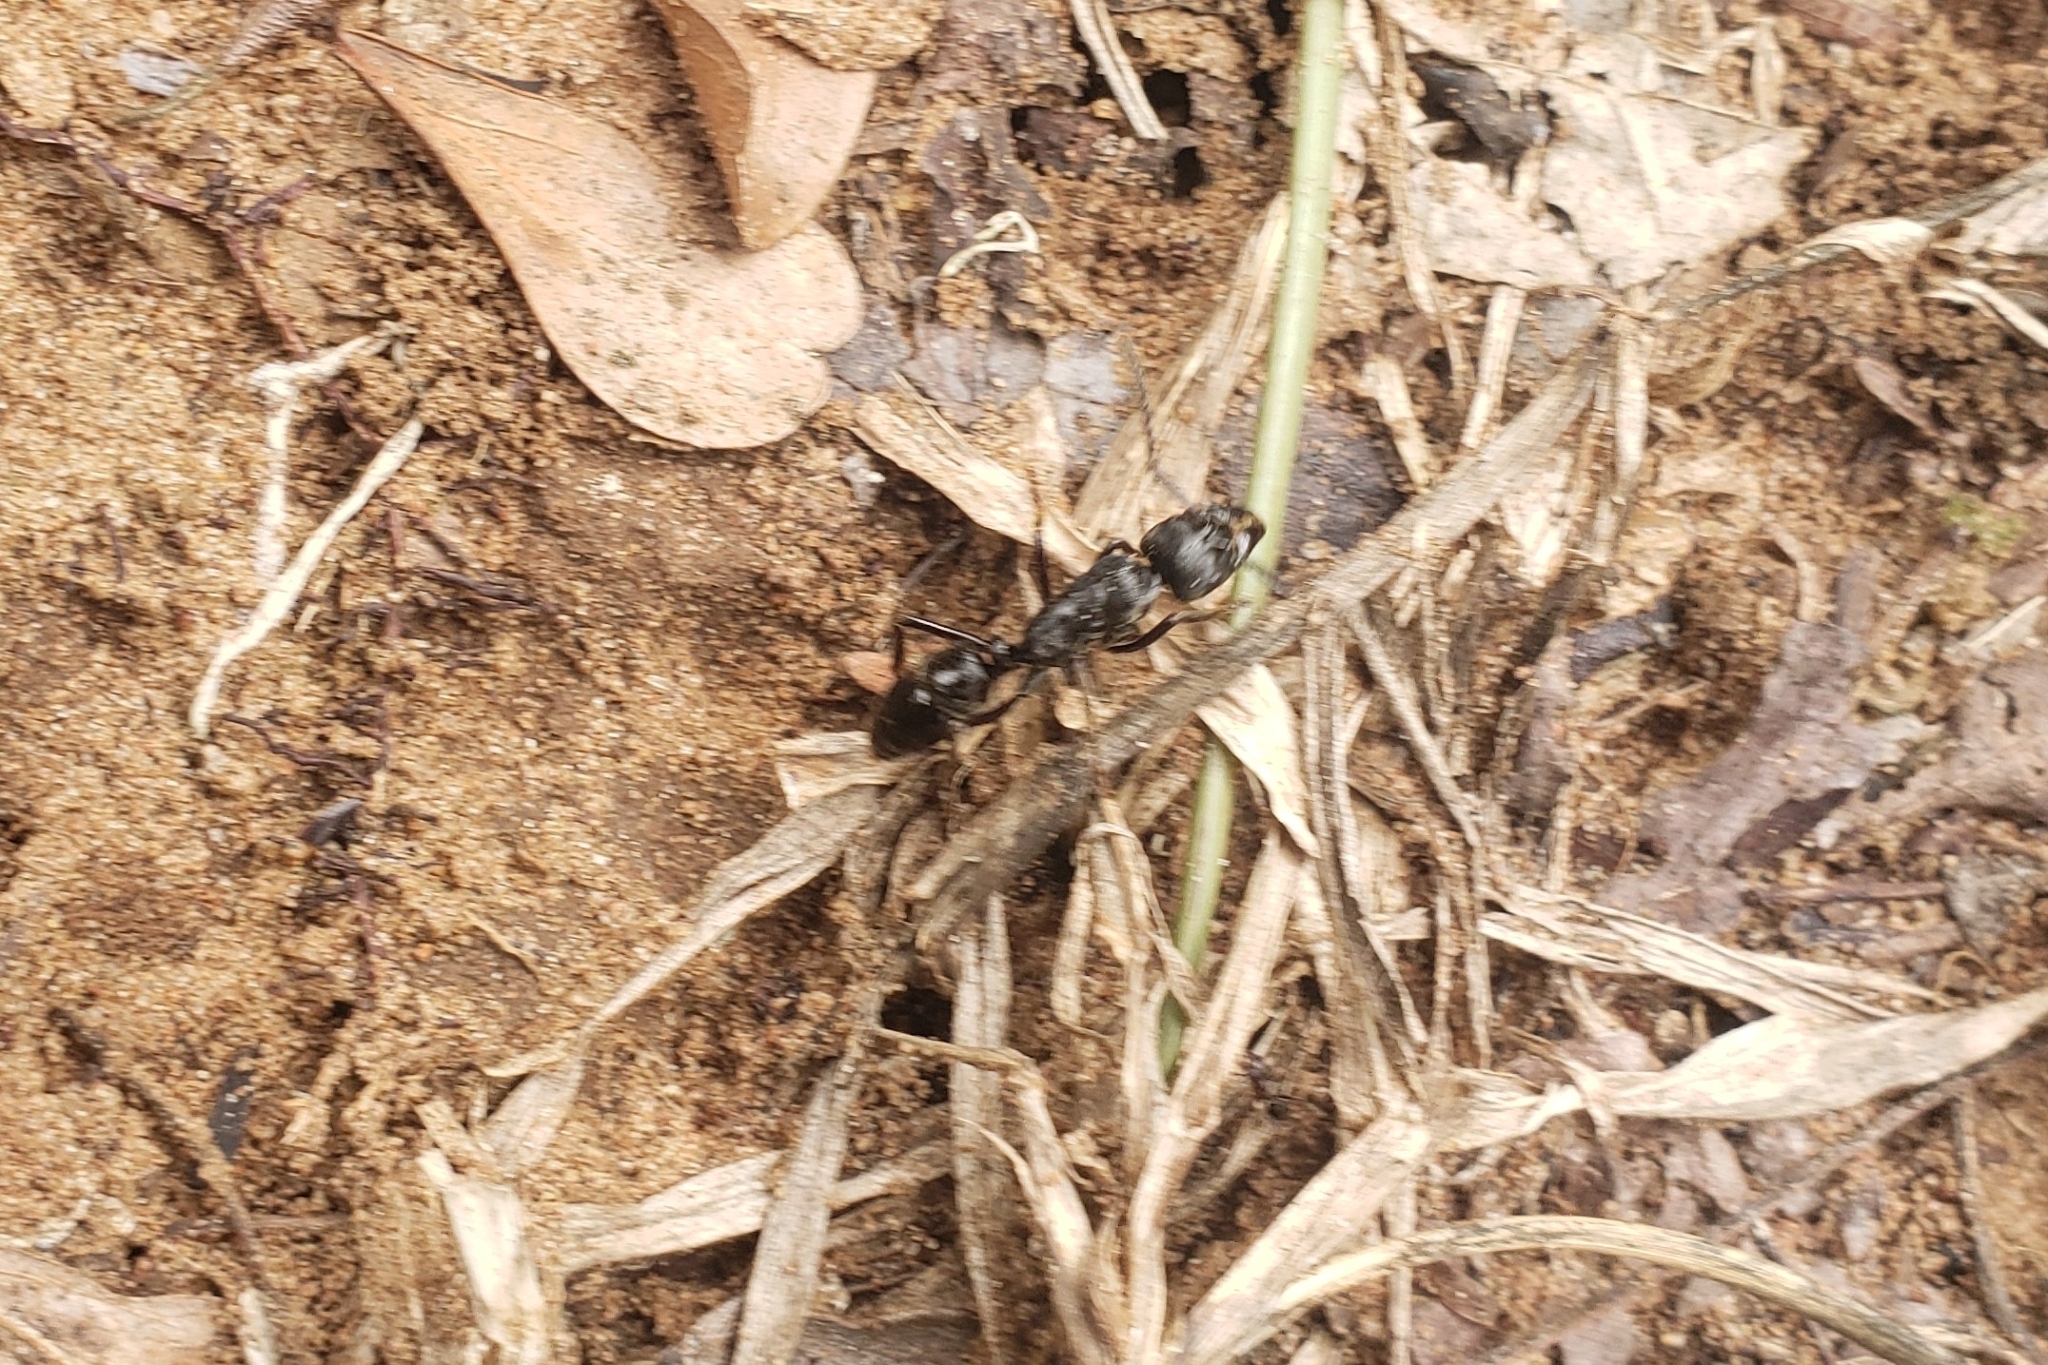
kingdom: Animalia
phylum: Arthropoda
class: Insecta
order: Hymenoptera
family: Formicidae
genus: Paltothyreus
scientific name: Paltothyreus tarsatus
